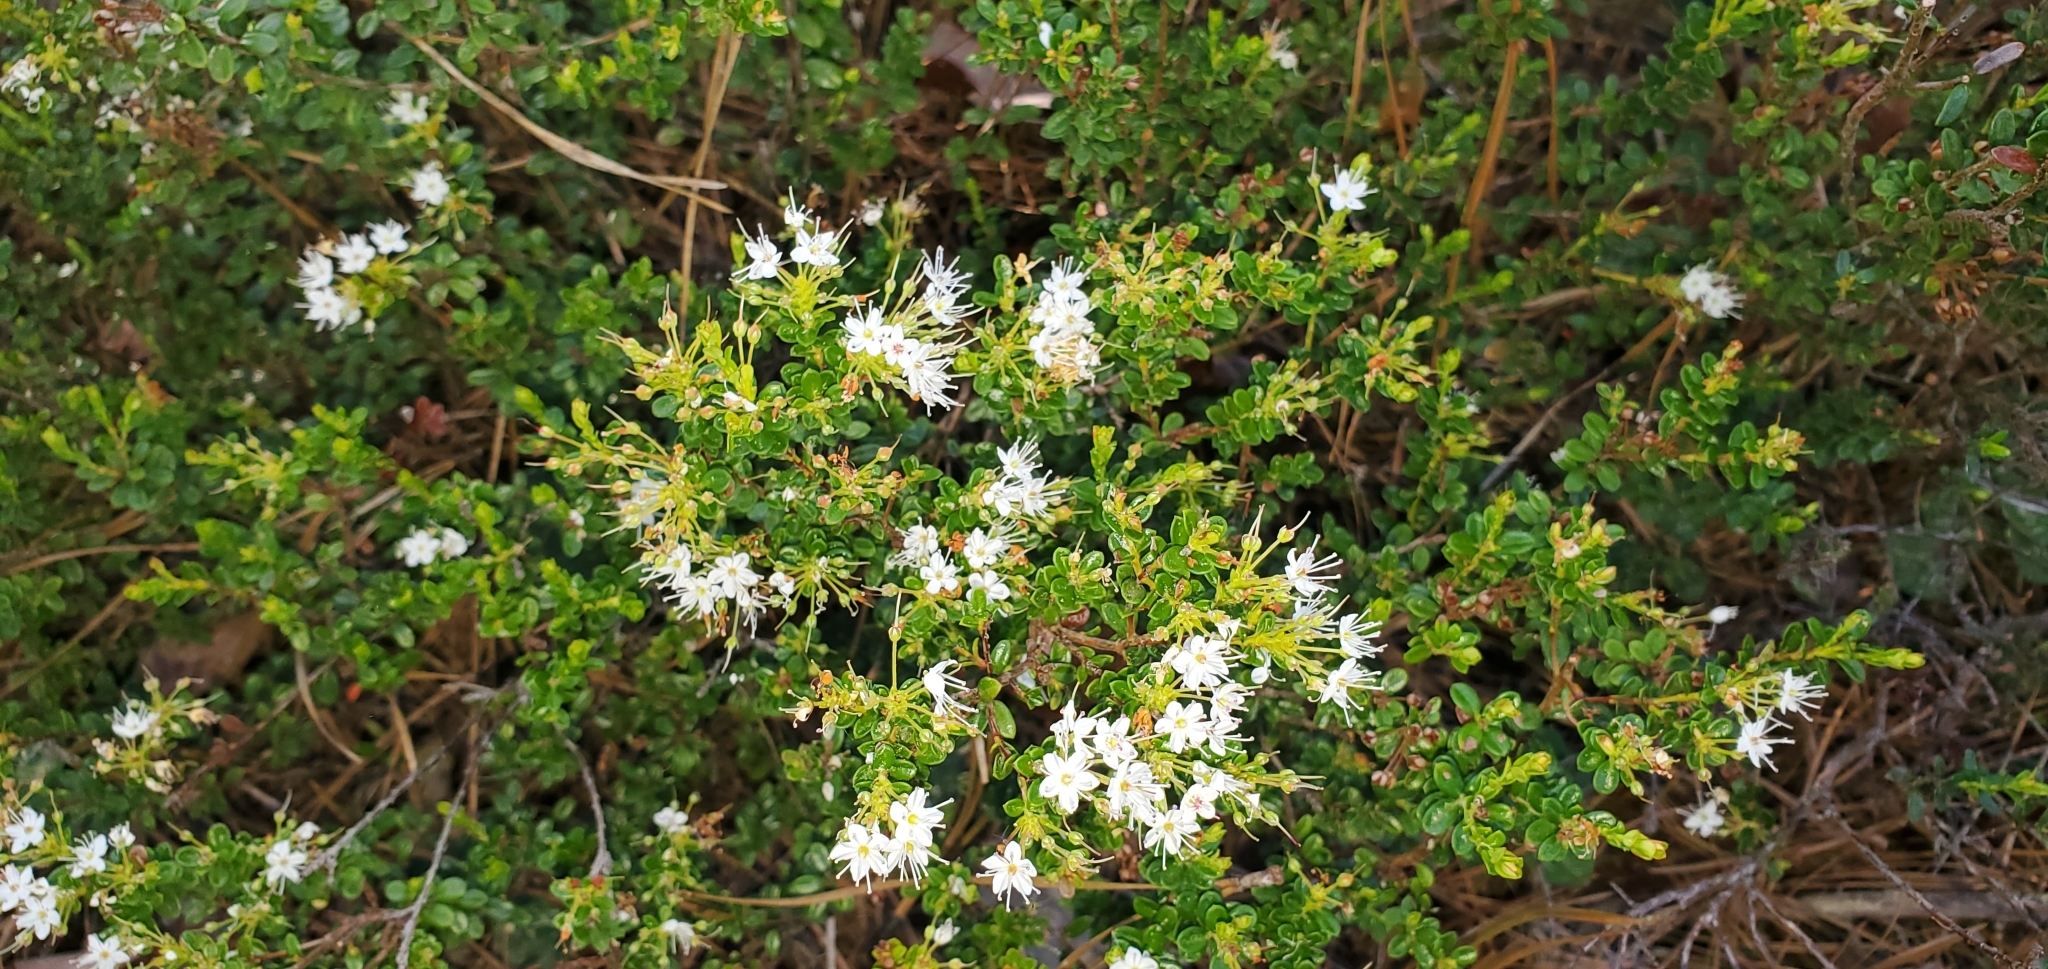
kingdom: Plantae
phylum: Tracheophyta
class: Magnoliopsida
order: Ericales
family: Ericaceae
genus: Kalmia
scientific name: Kalmia buxifolia
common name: Sandmyrtle
